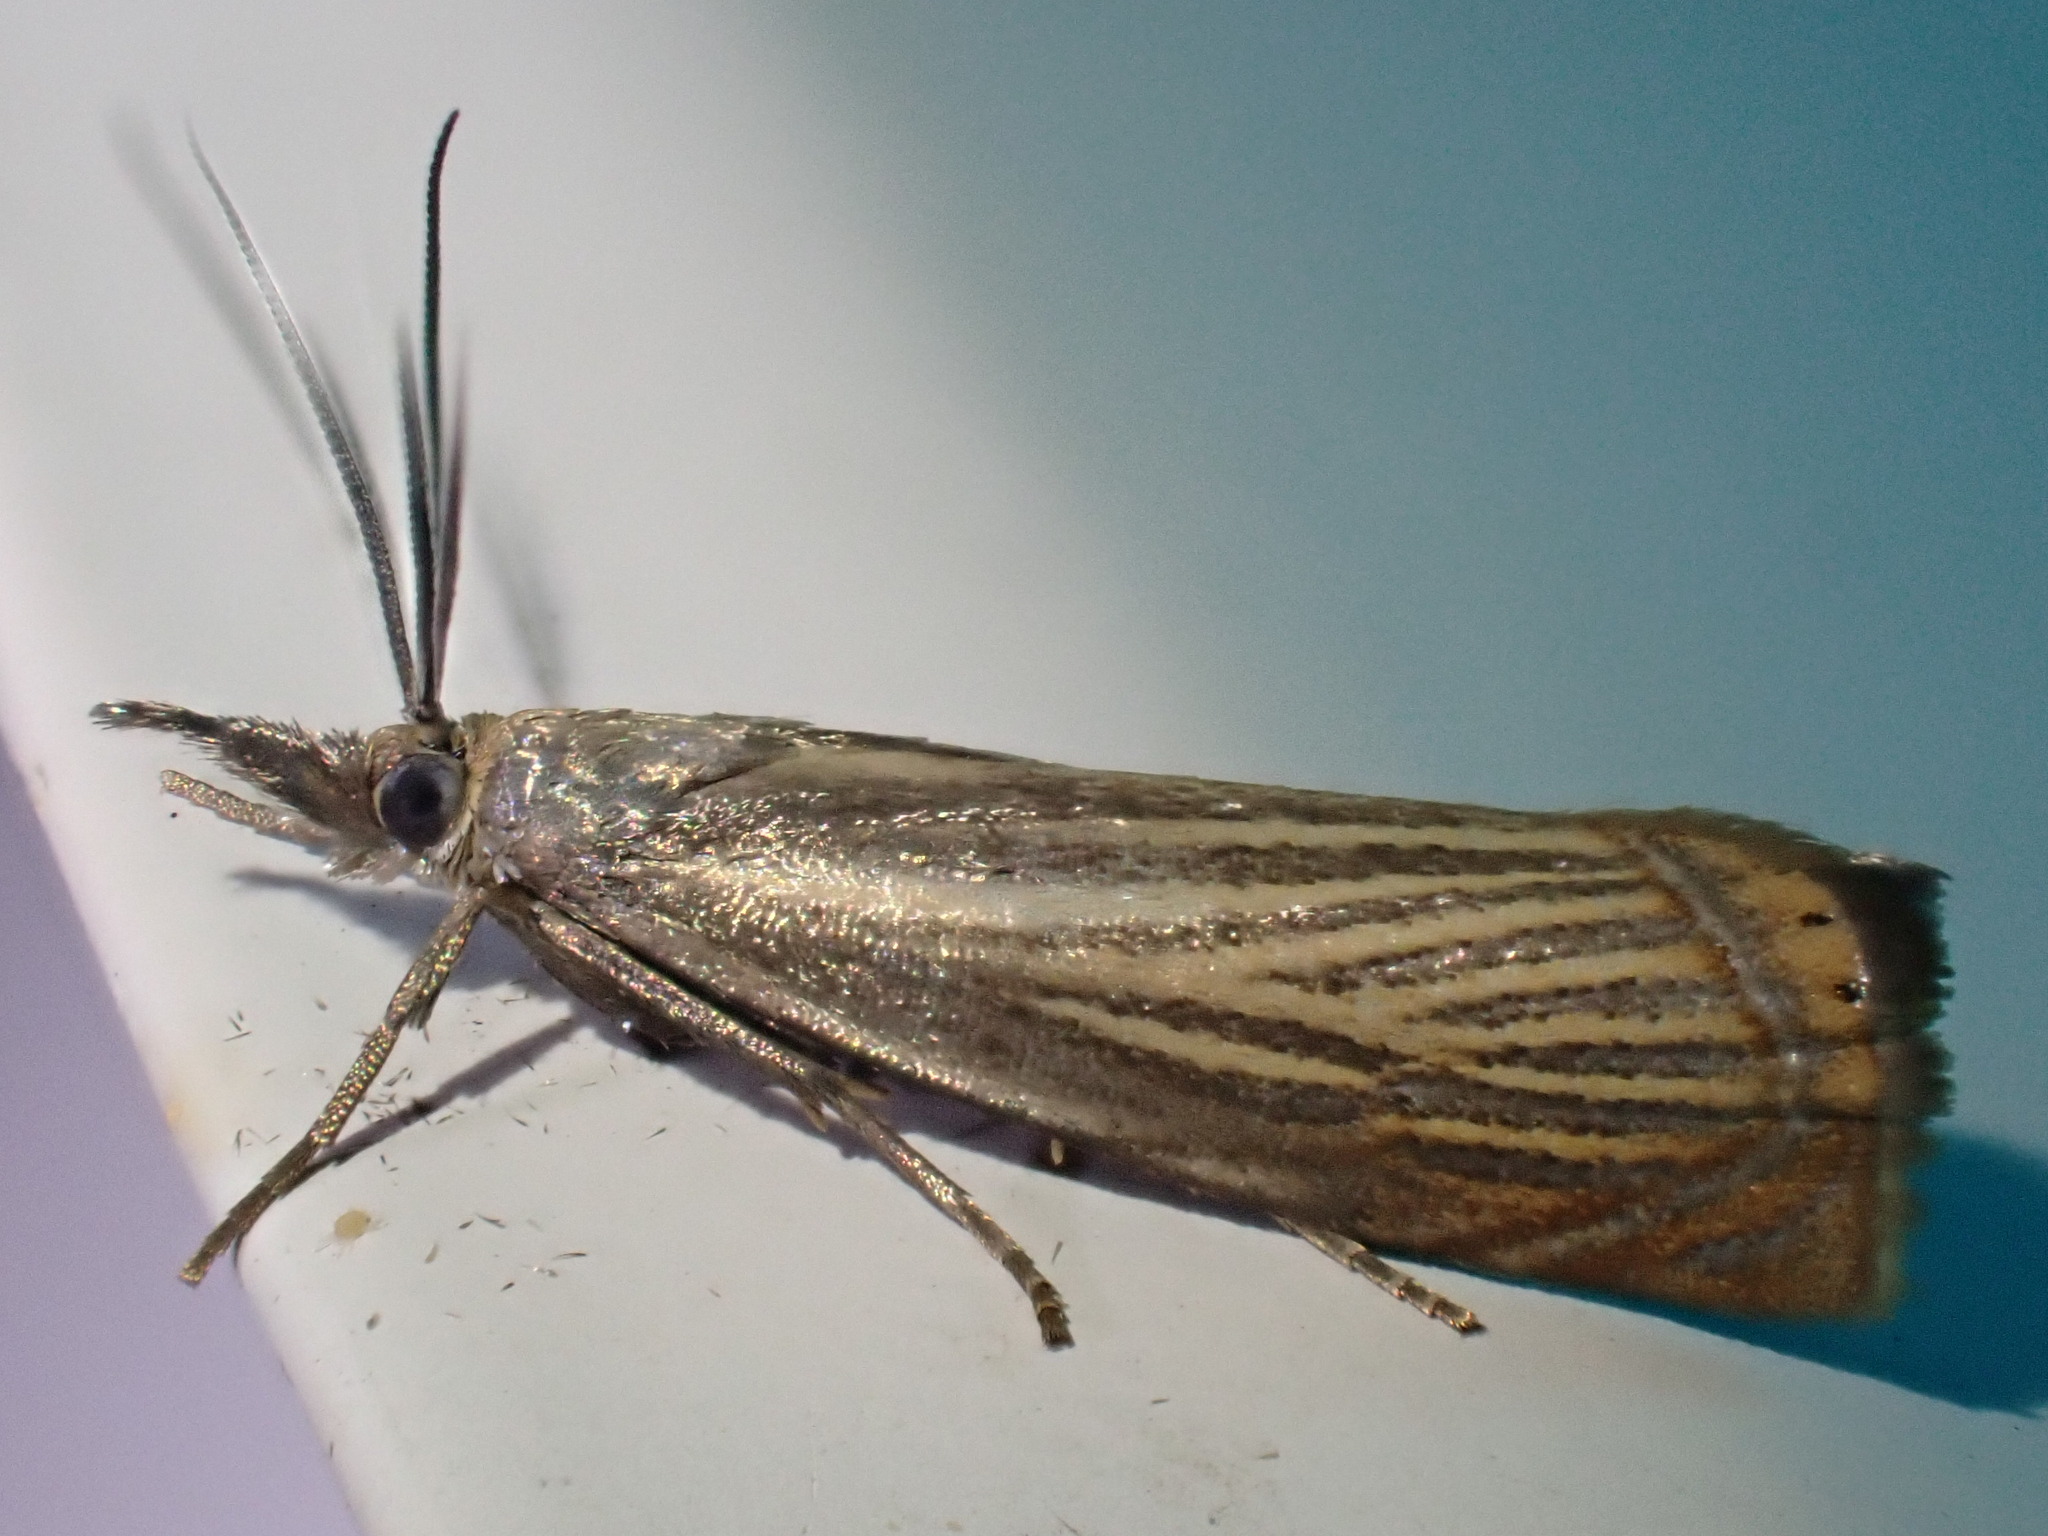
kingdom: Animalia
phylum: Arthropoda
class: Insecta
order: Lepidoptera
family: Crambidae
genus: Chrysoteuchia
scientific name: Chrysoteuchia culmella
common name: Garden grass-veneer
